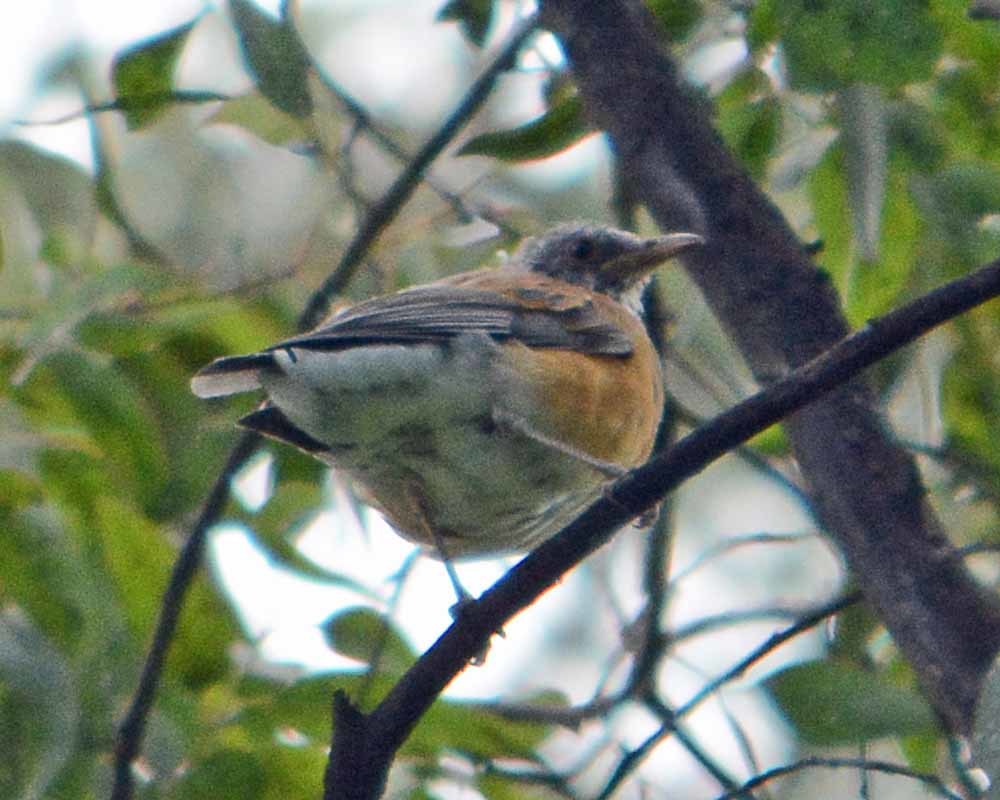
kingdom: Animalia
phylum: Chordata
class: Aves
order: Passeriformes
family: Turdidae
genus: Turdus
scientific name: Turdus rufopalliatus
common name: Rufous-backed robin
